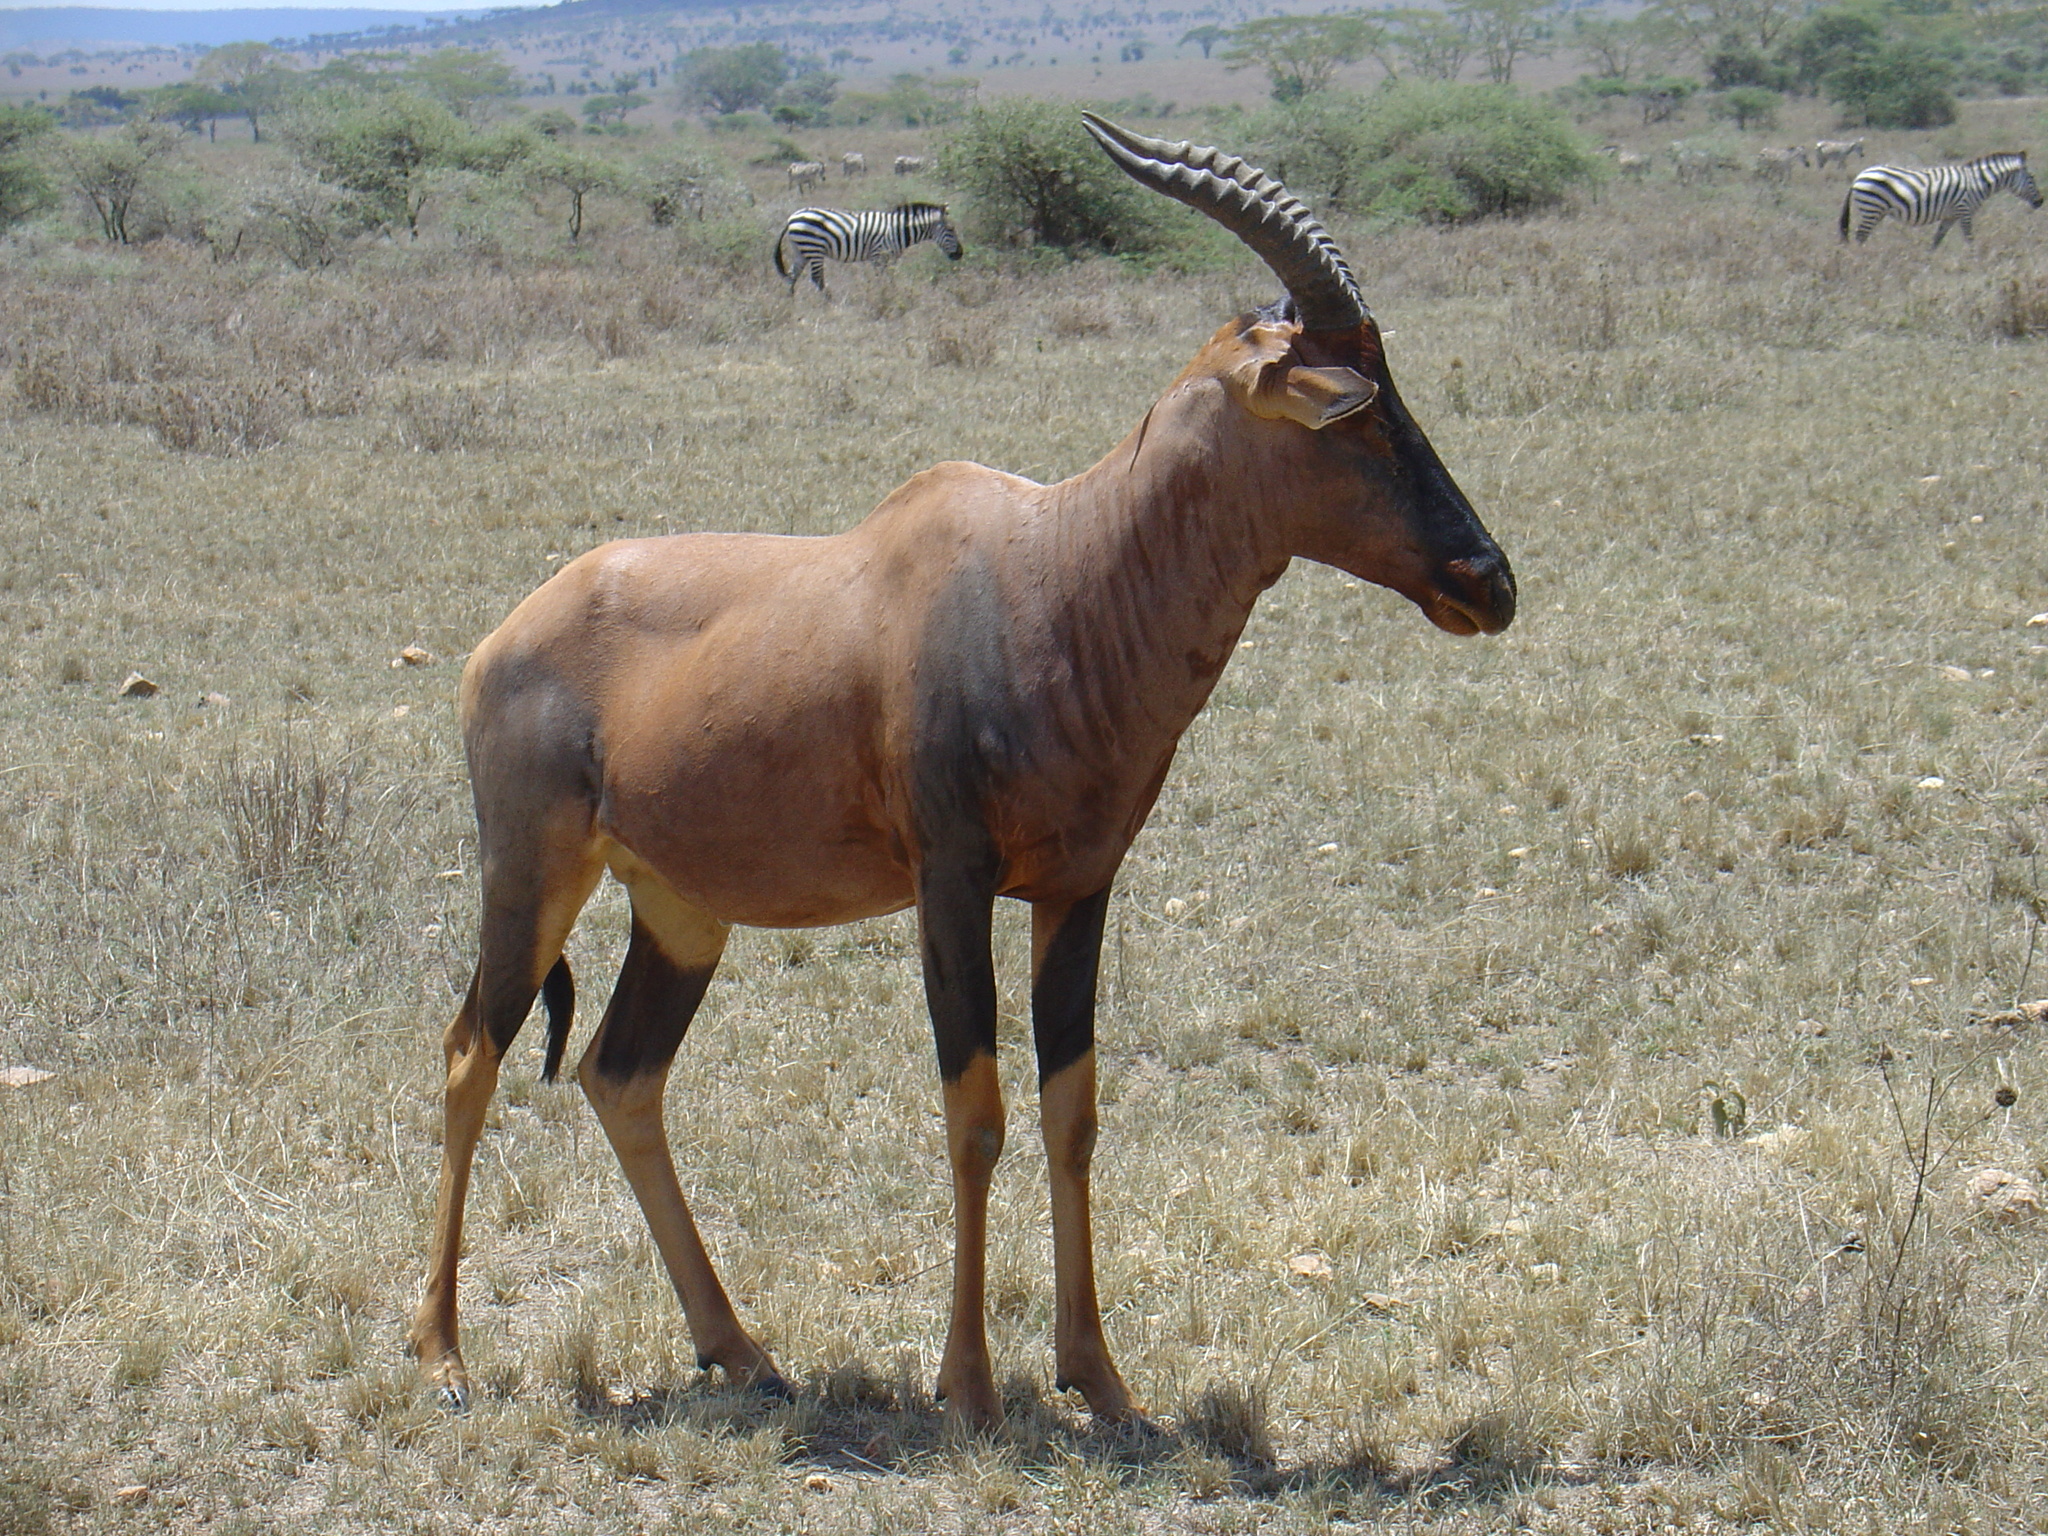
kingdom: Animalia
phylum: Chordata
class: Mammalia
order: Artiodactyla
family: Bovidae
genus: Damaliscus
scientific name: Damaliscus korrigum
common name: Topi
